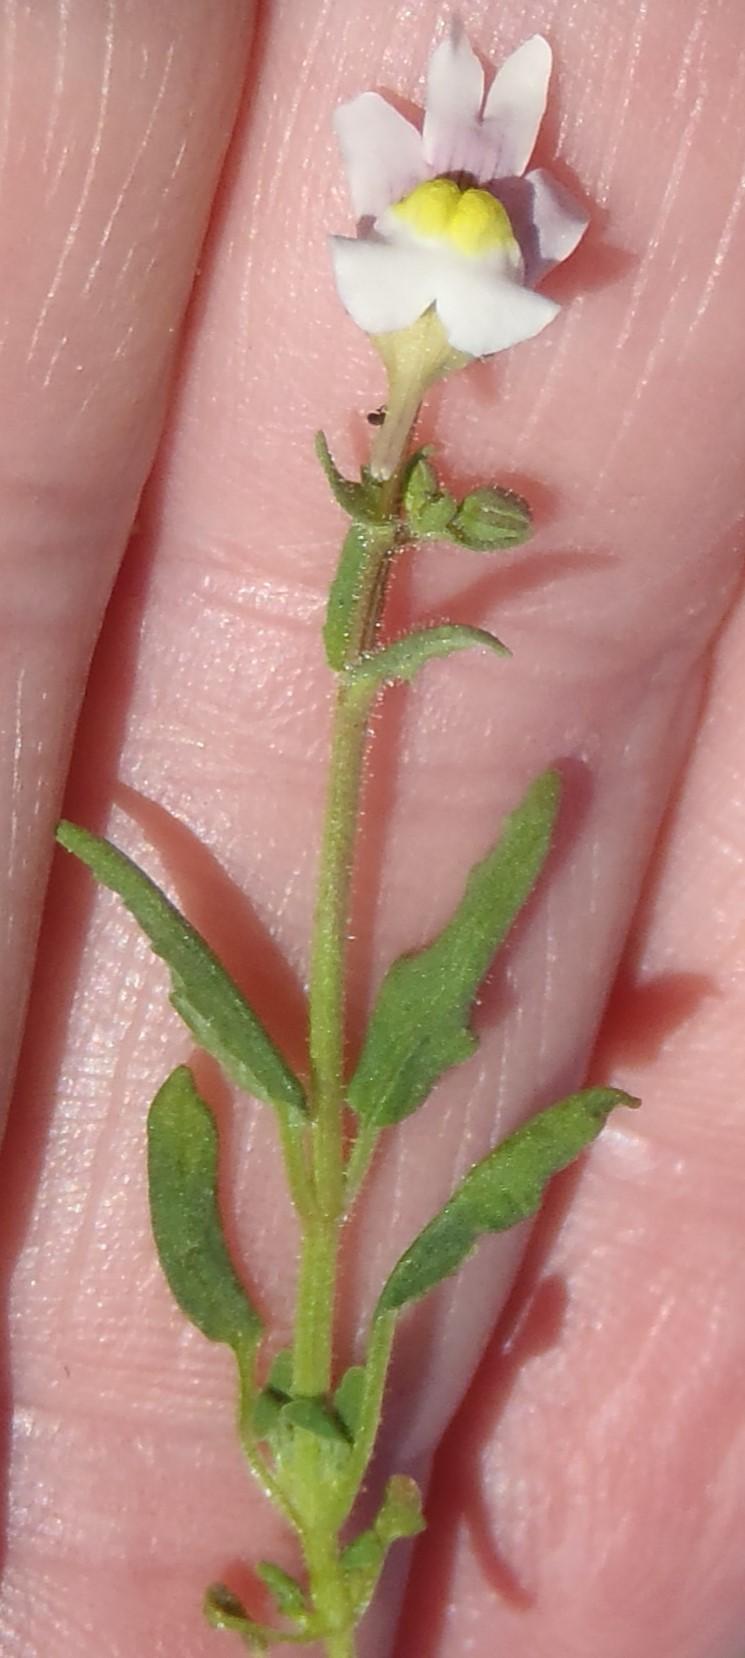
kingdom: Plantae
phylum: Tracheophyta
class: Magnoliopsida
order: Lamiales
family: Scrophulariaceae
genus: Nemesia
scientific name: Nemesia ligulata
